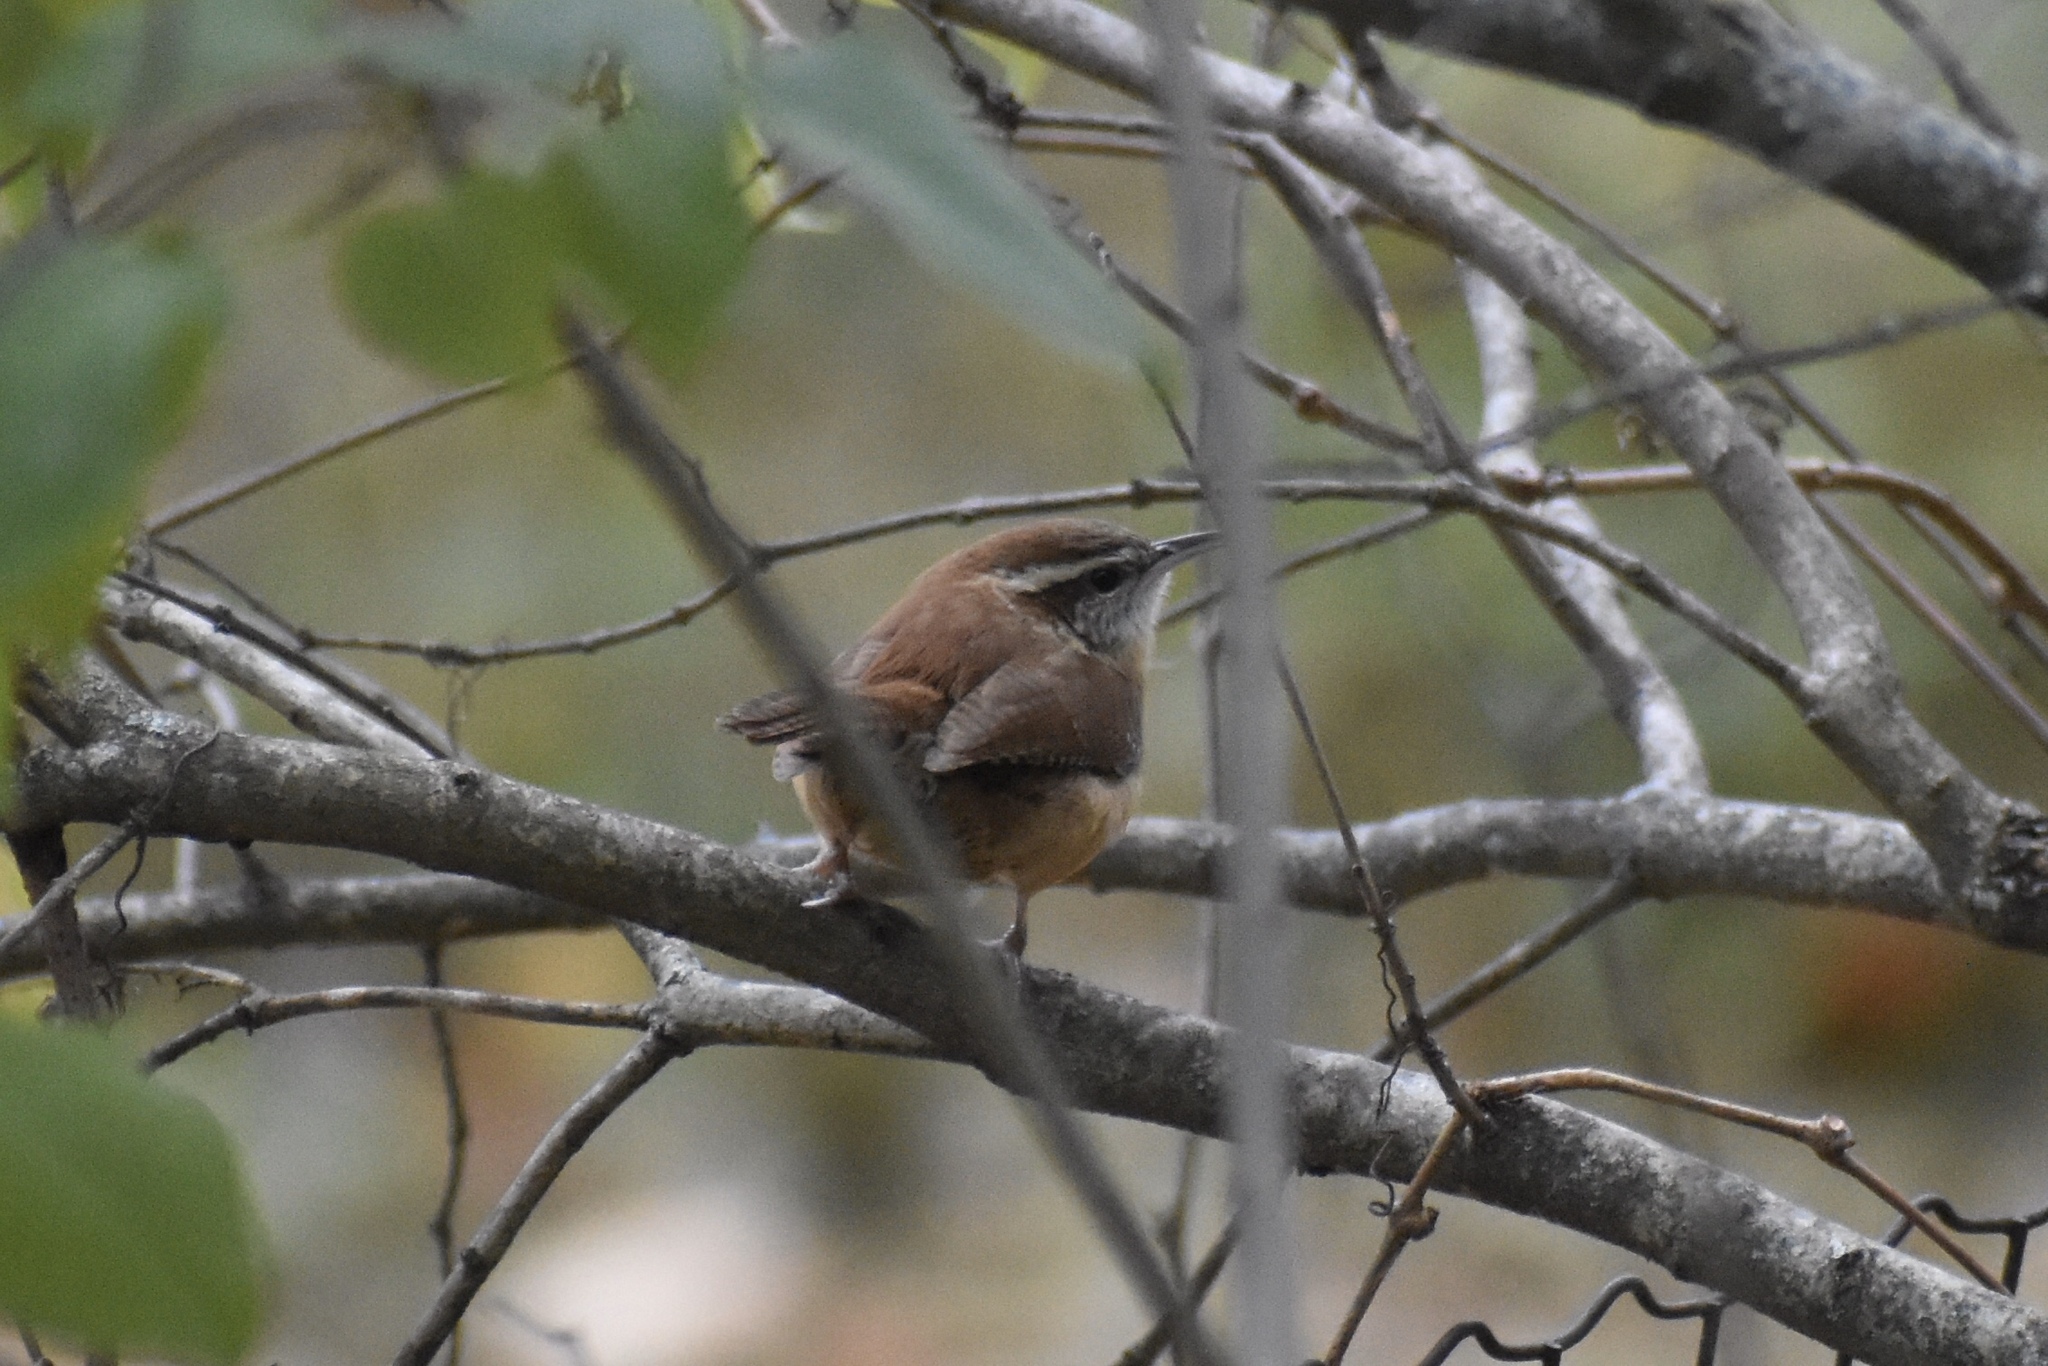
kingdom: Animalia
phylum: Chordata
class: Aves
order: Passeriformes
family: Troglodytidae
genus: Thryothorus
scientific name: Thryothorus ludovicianus
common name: Carolina wren
